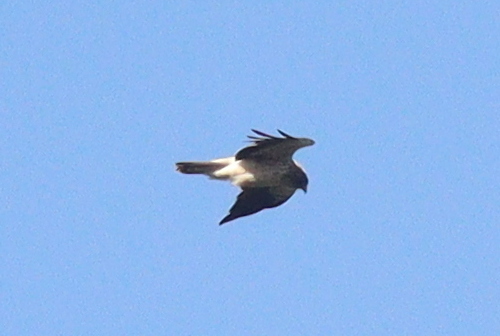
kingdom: Animalia
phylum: Chordata
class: Aves
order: Accipitriformes
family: Accipitridae
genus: Hieraaetus
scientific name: Hieraaetus pennatus
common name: Booted eagle
